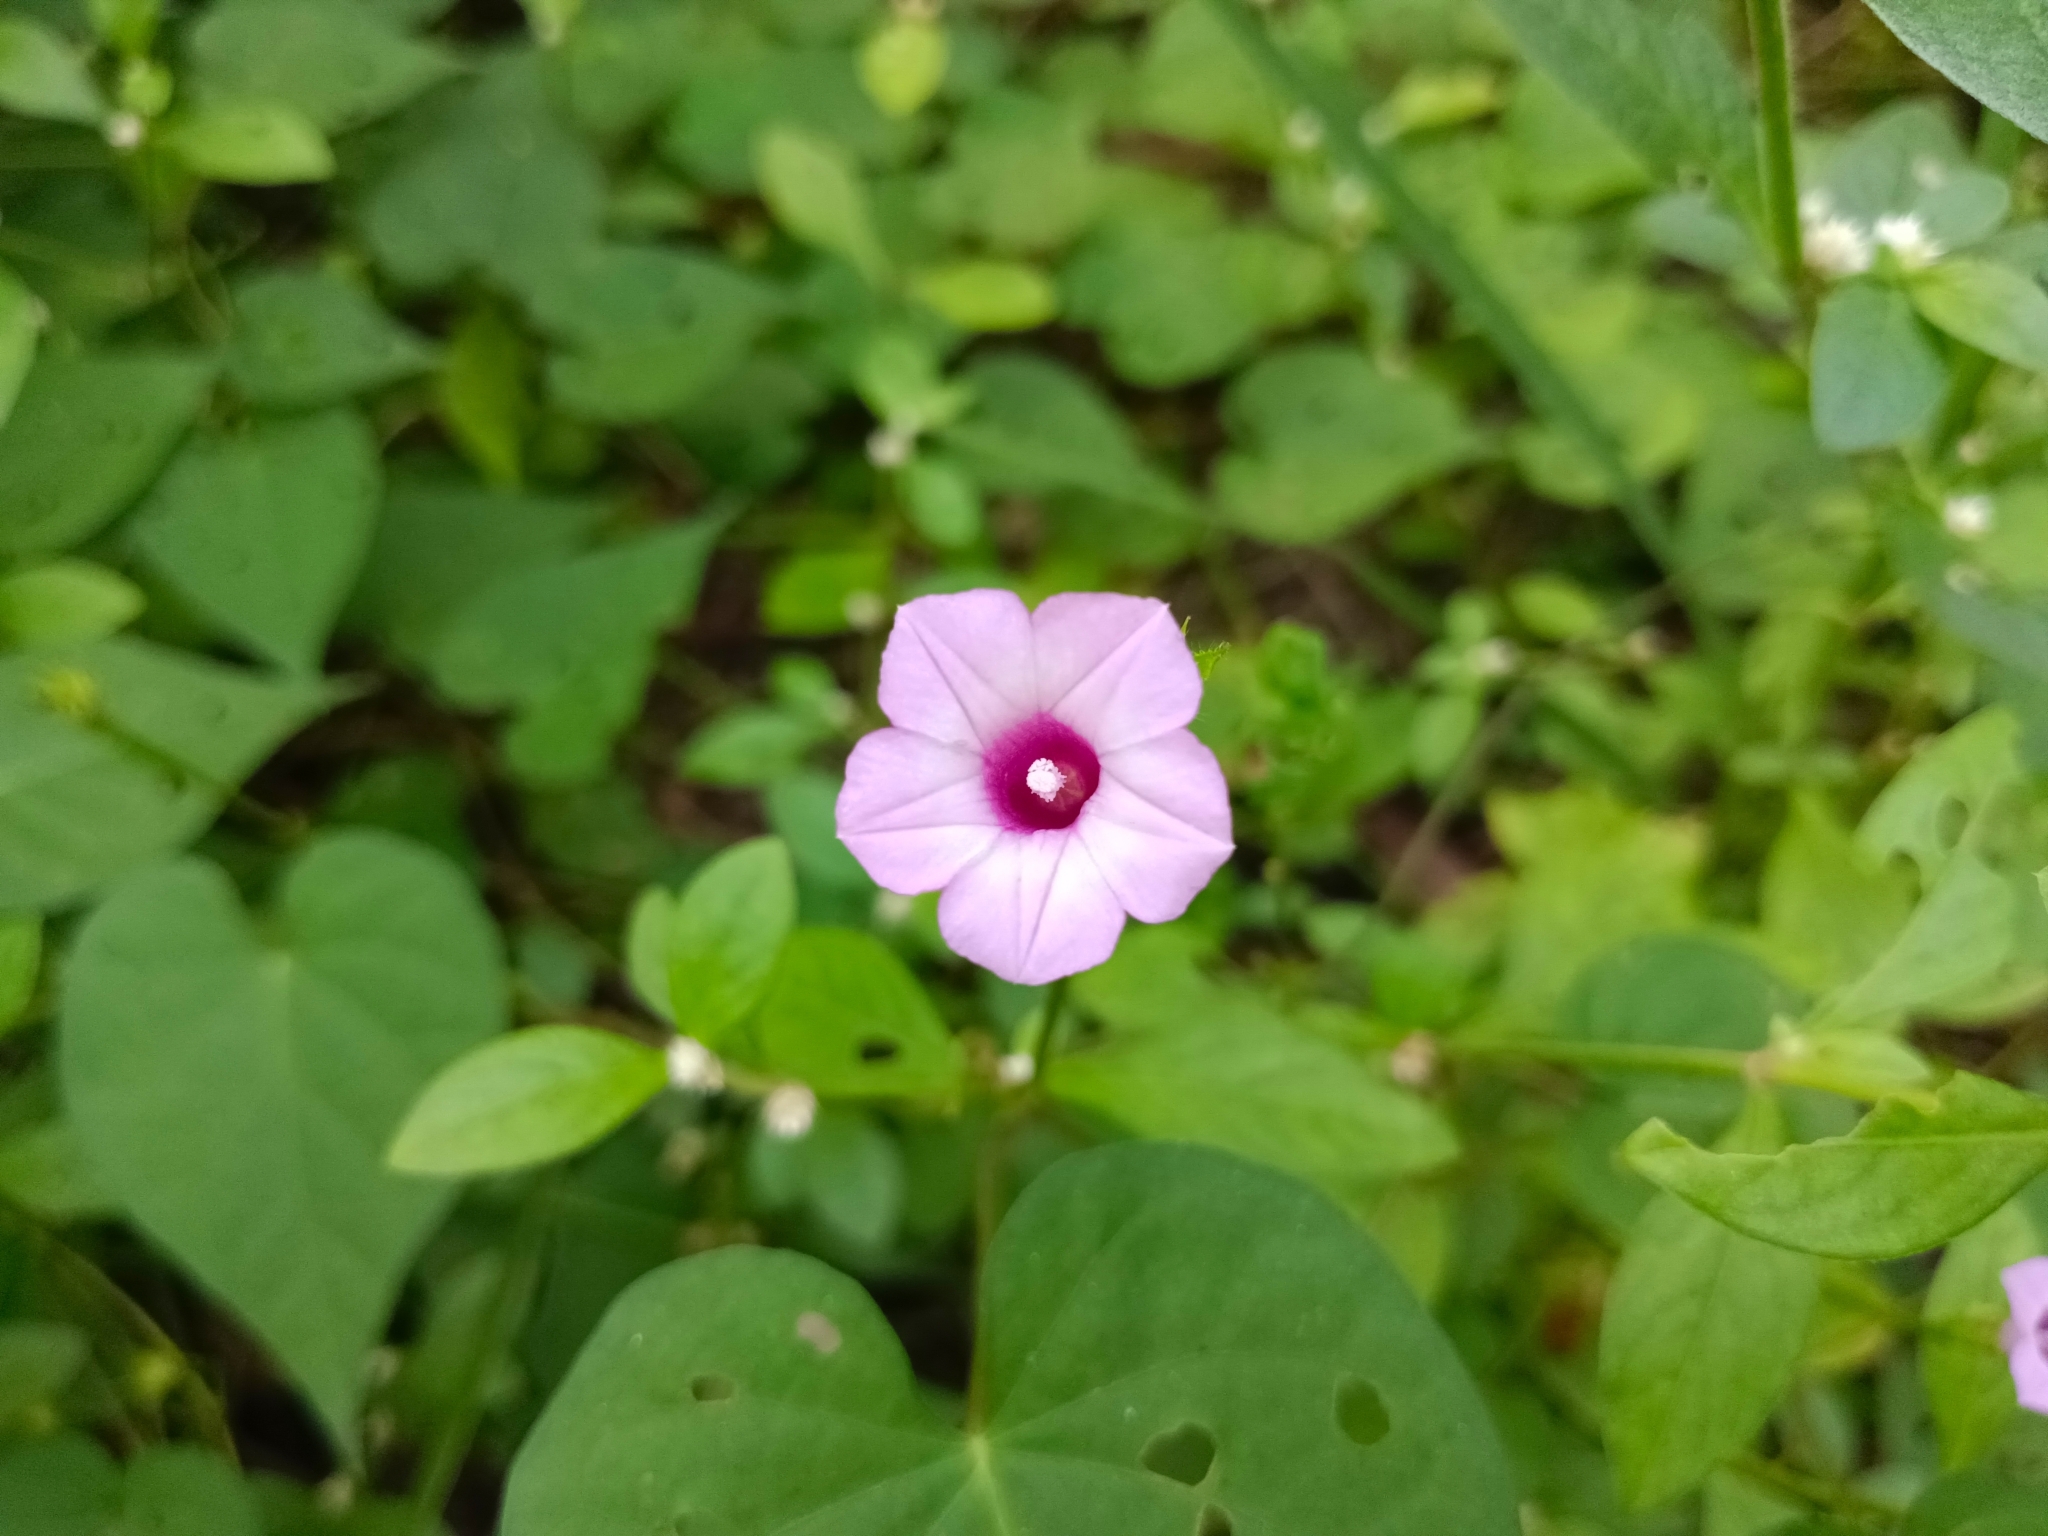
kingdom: Plantae
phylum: Tracheophyta
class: Magnoliopsida
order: Solanales
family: Convolvulaceae
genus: Ipomoea
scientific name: Ipomoea triloba
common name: Little-bell
